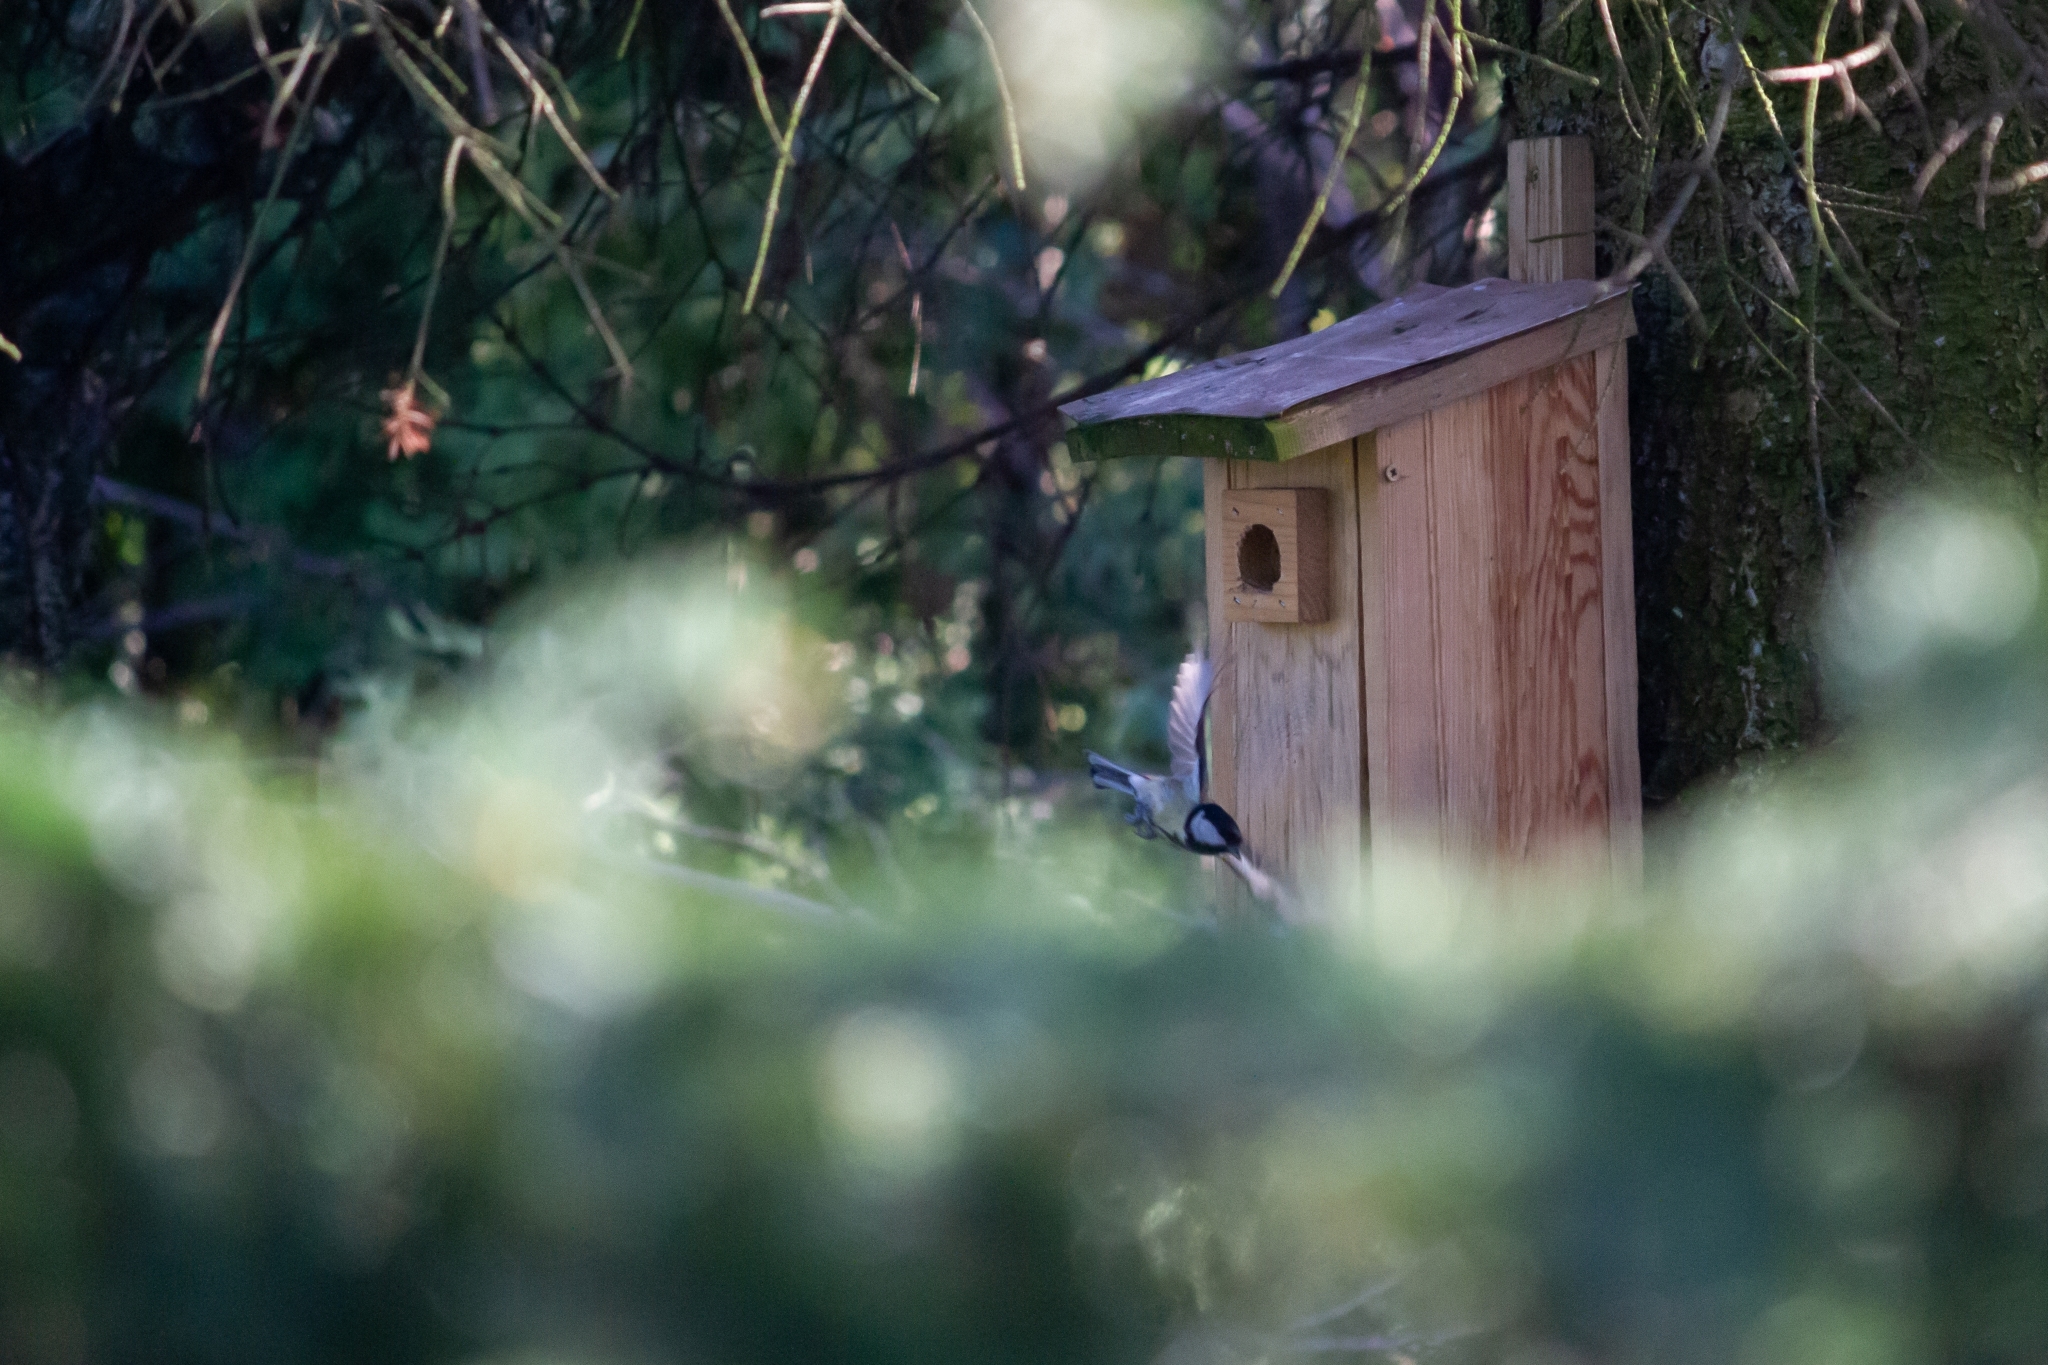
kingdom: Animalia
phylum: Chordata
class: Aves
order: Passeriformes
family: Paridae
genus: Parus
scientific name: Parus major
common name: Great tit
